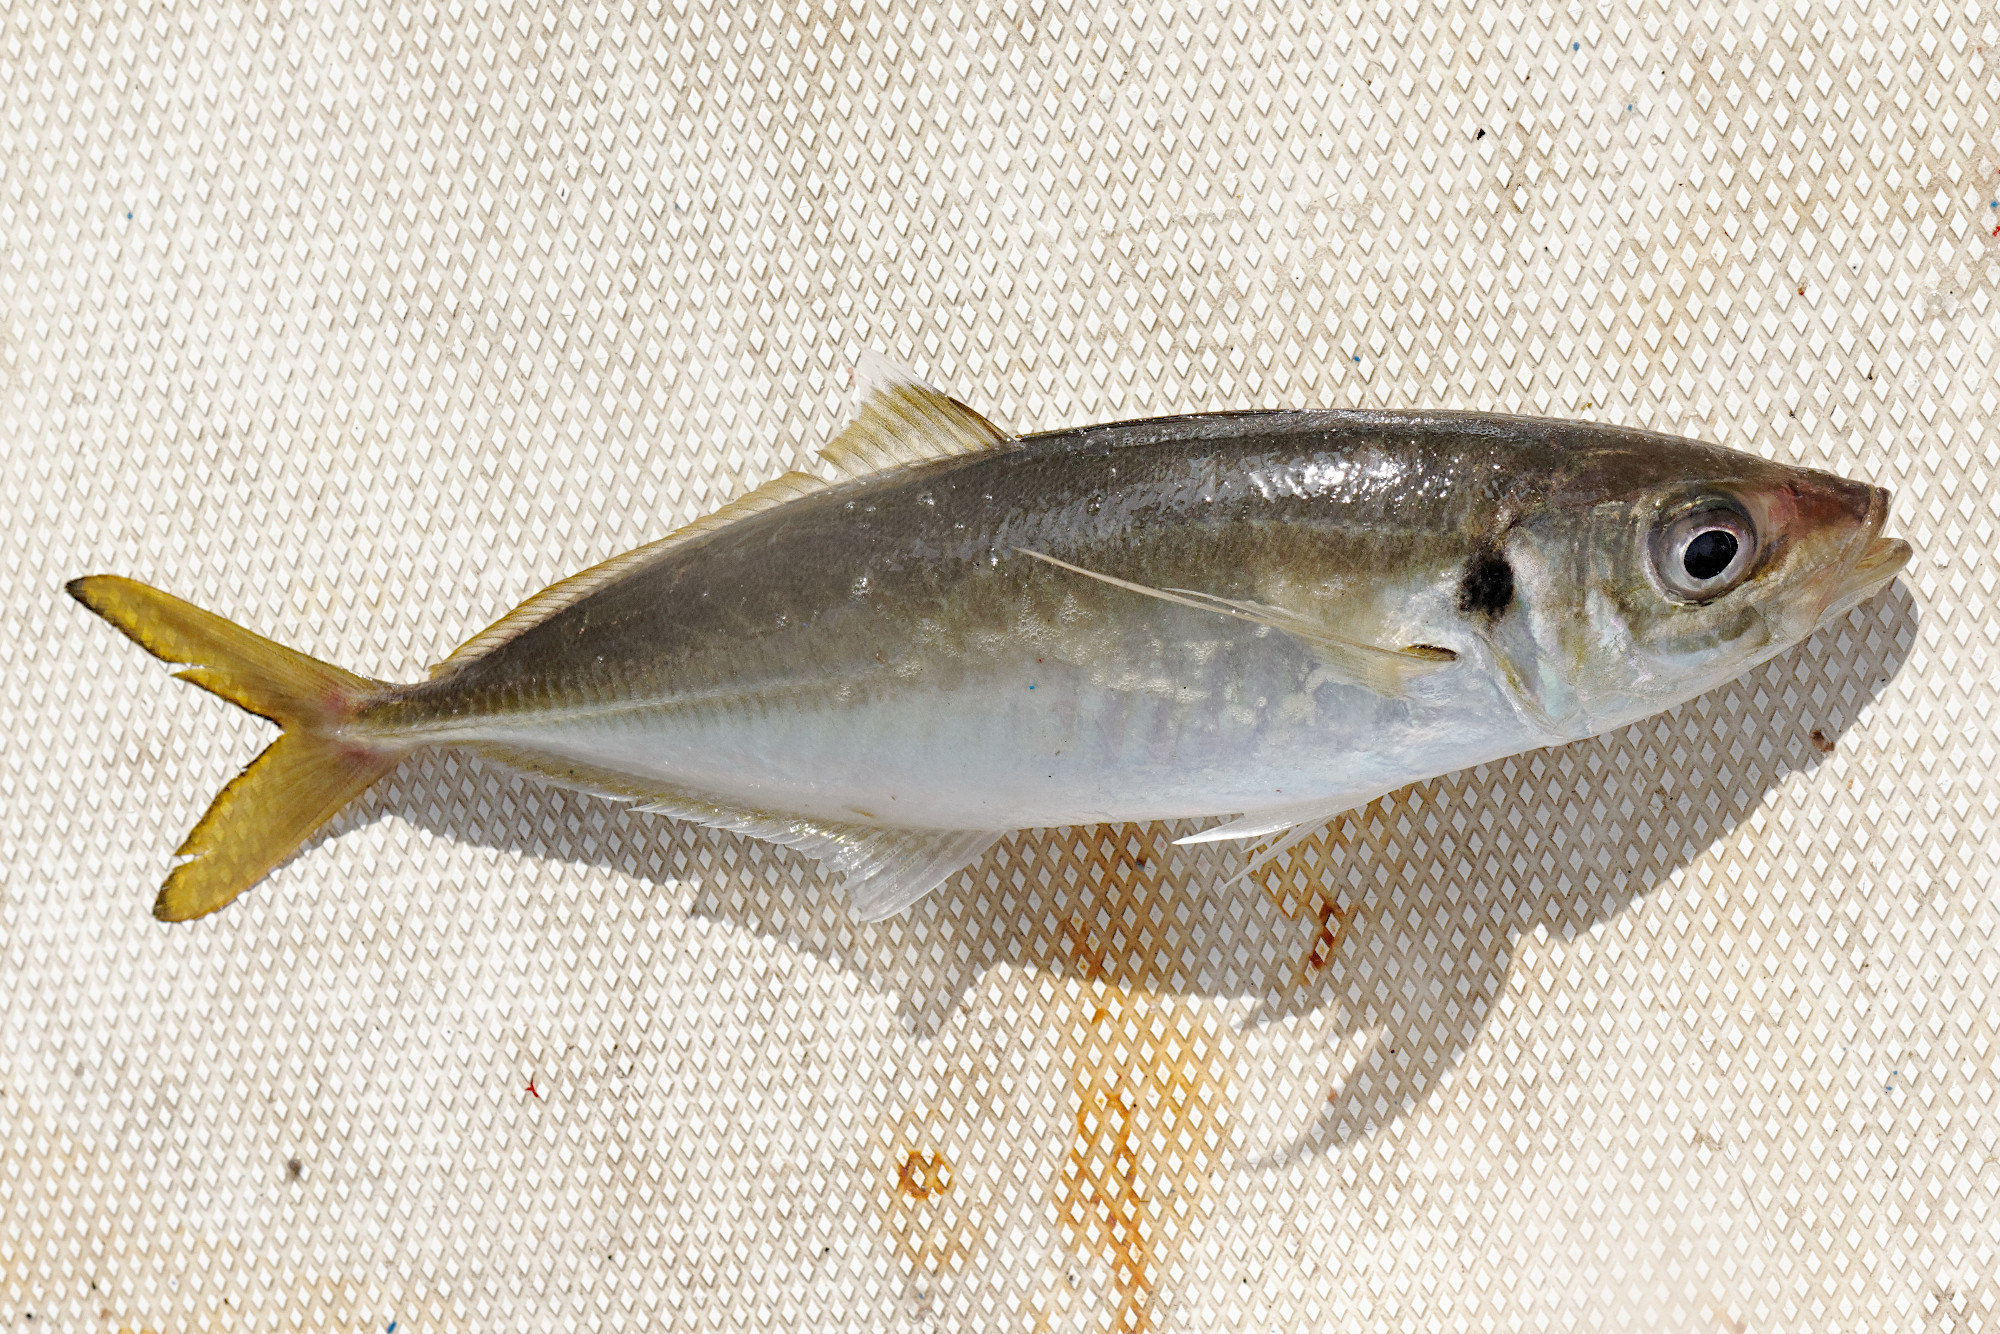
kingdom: Animalia
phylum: Chordata
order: Perciformes
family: Carangidae
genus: Trachurus
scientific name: Trachurus novaezelandiae
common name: Yellowtail horse mackerel
